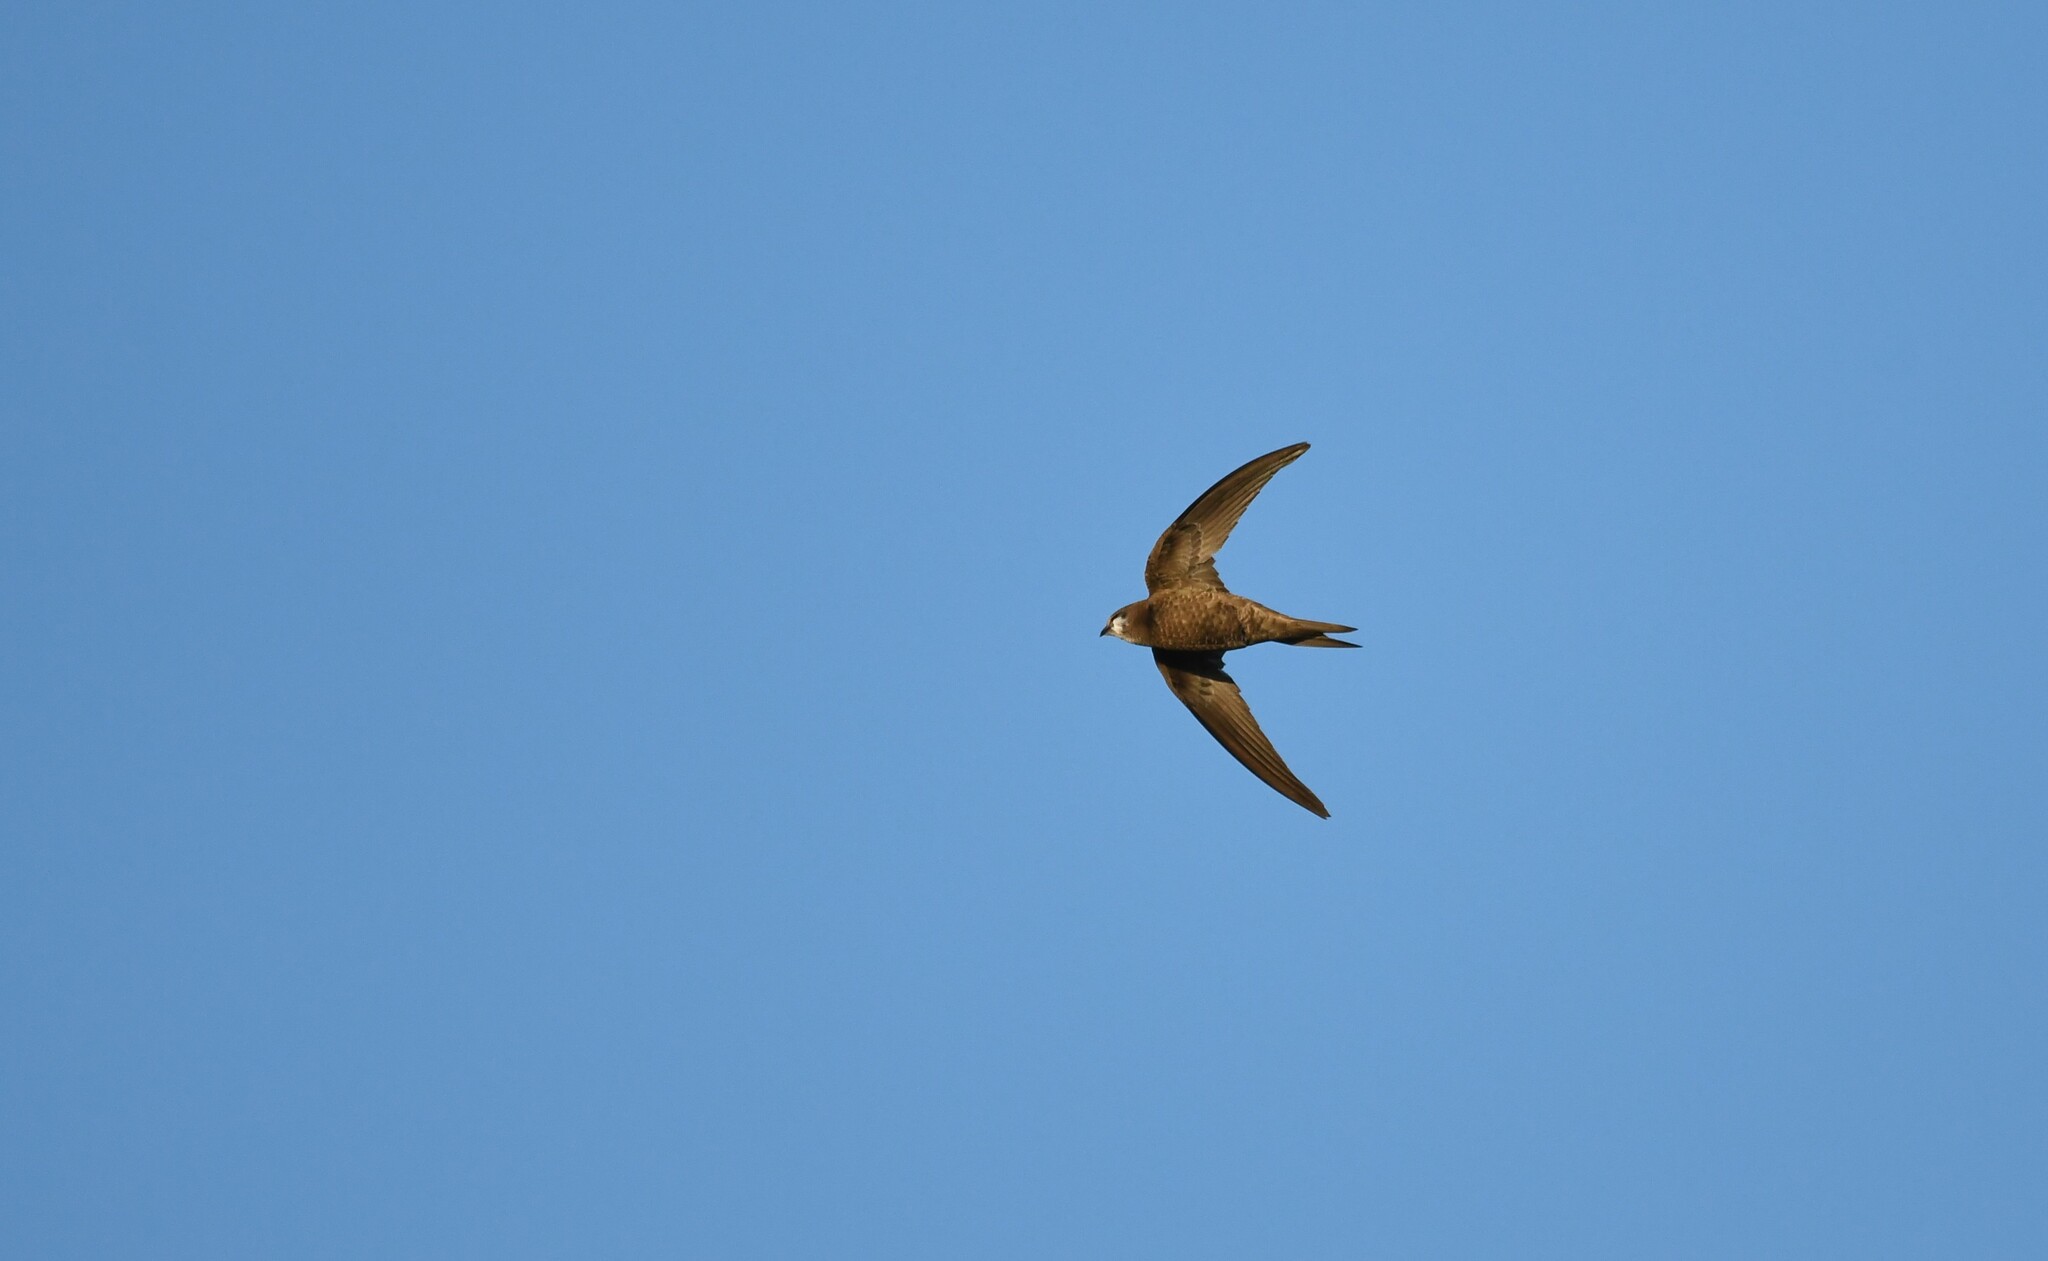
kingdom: Animalia
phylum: Chordata
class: Aves
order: Apodiformes
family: Apodidae
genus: Apus
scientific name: Apus pallidus
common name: Pallid swift
